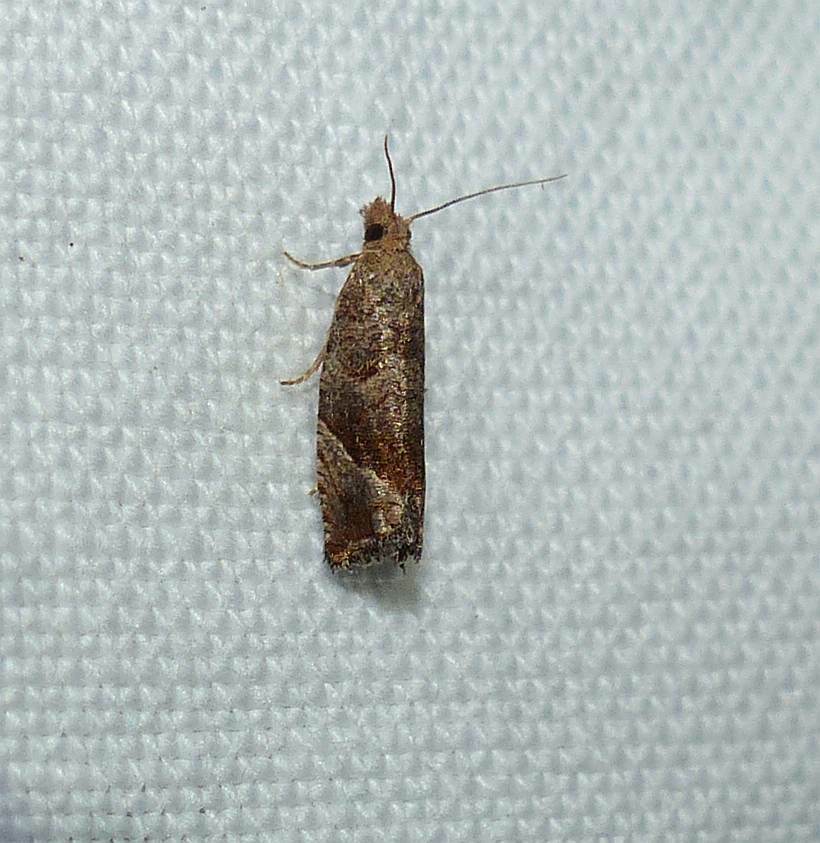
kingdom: Animalia
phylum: Arthropoda
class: Insecta
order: Lepidoptera
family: Tortricidae
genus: Pelochrista
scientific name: Pelochrista derelicta
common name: Derelict pelochrista moth
